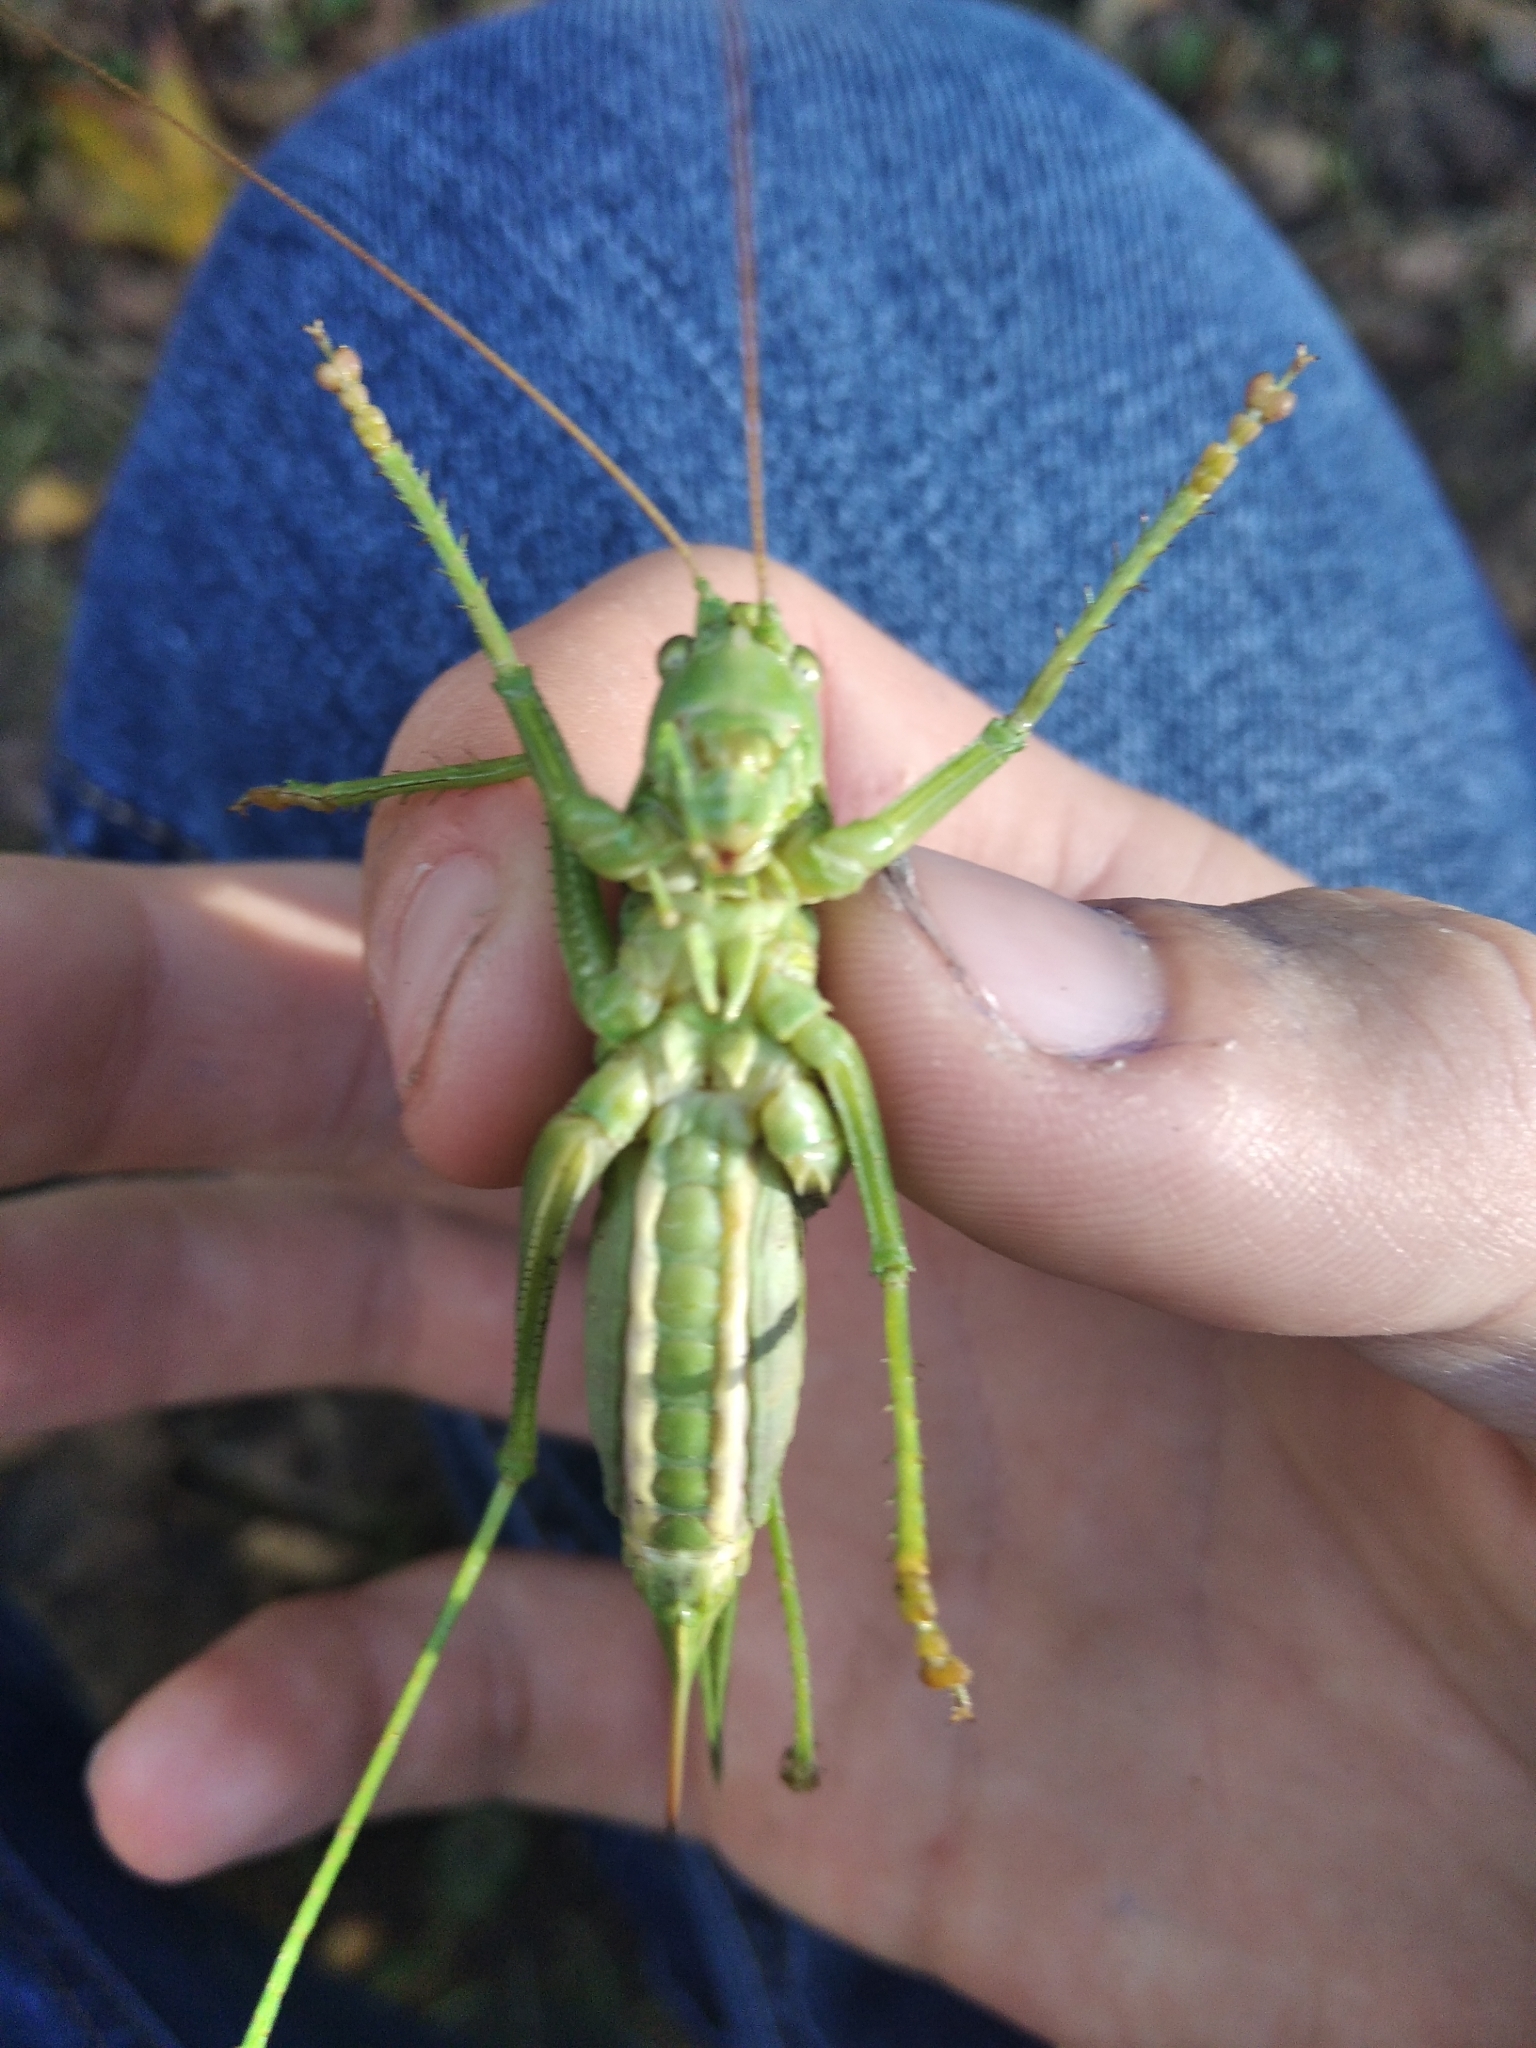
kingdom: Animalia
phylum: Arthropoda
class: Insecta
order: Orthoptera
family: Tettigoniidae
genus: Tettigonia
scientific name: Tettigonia viridissima
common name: Great green bush-cricket
